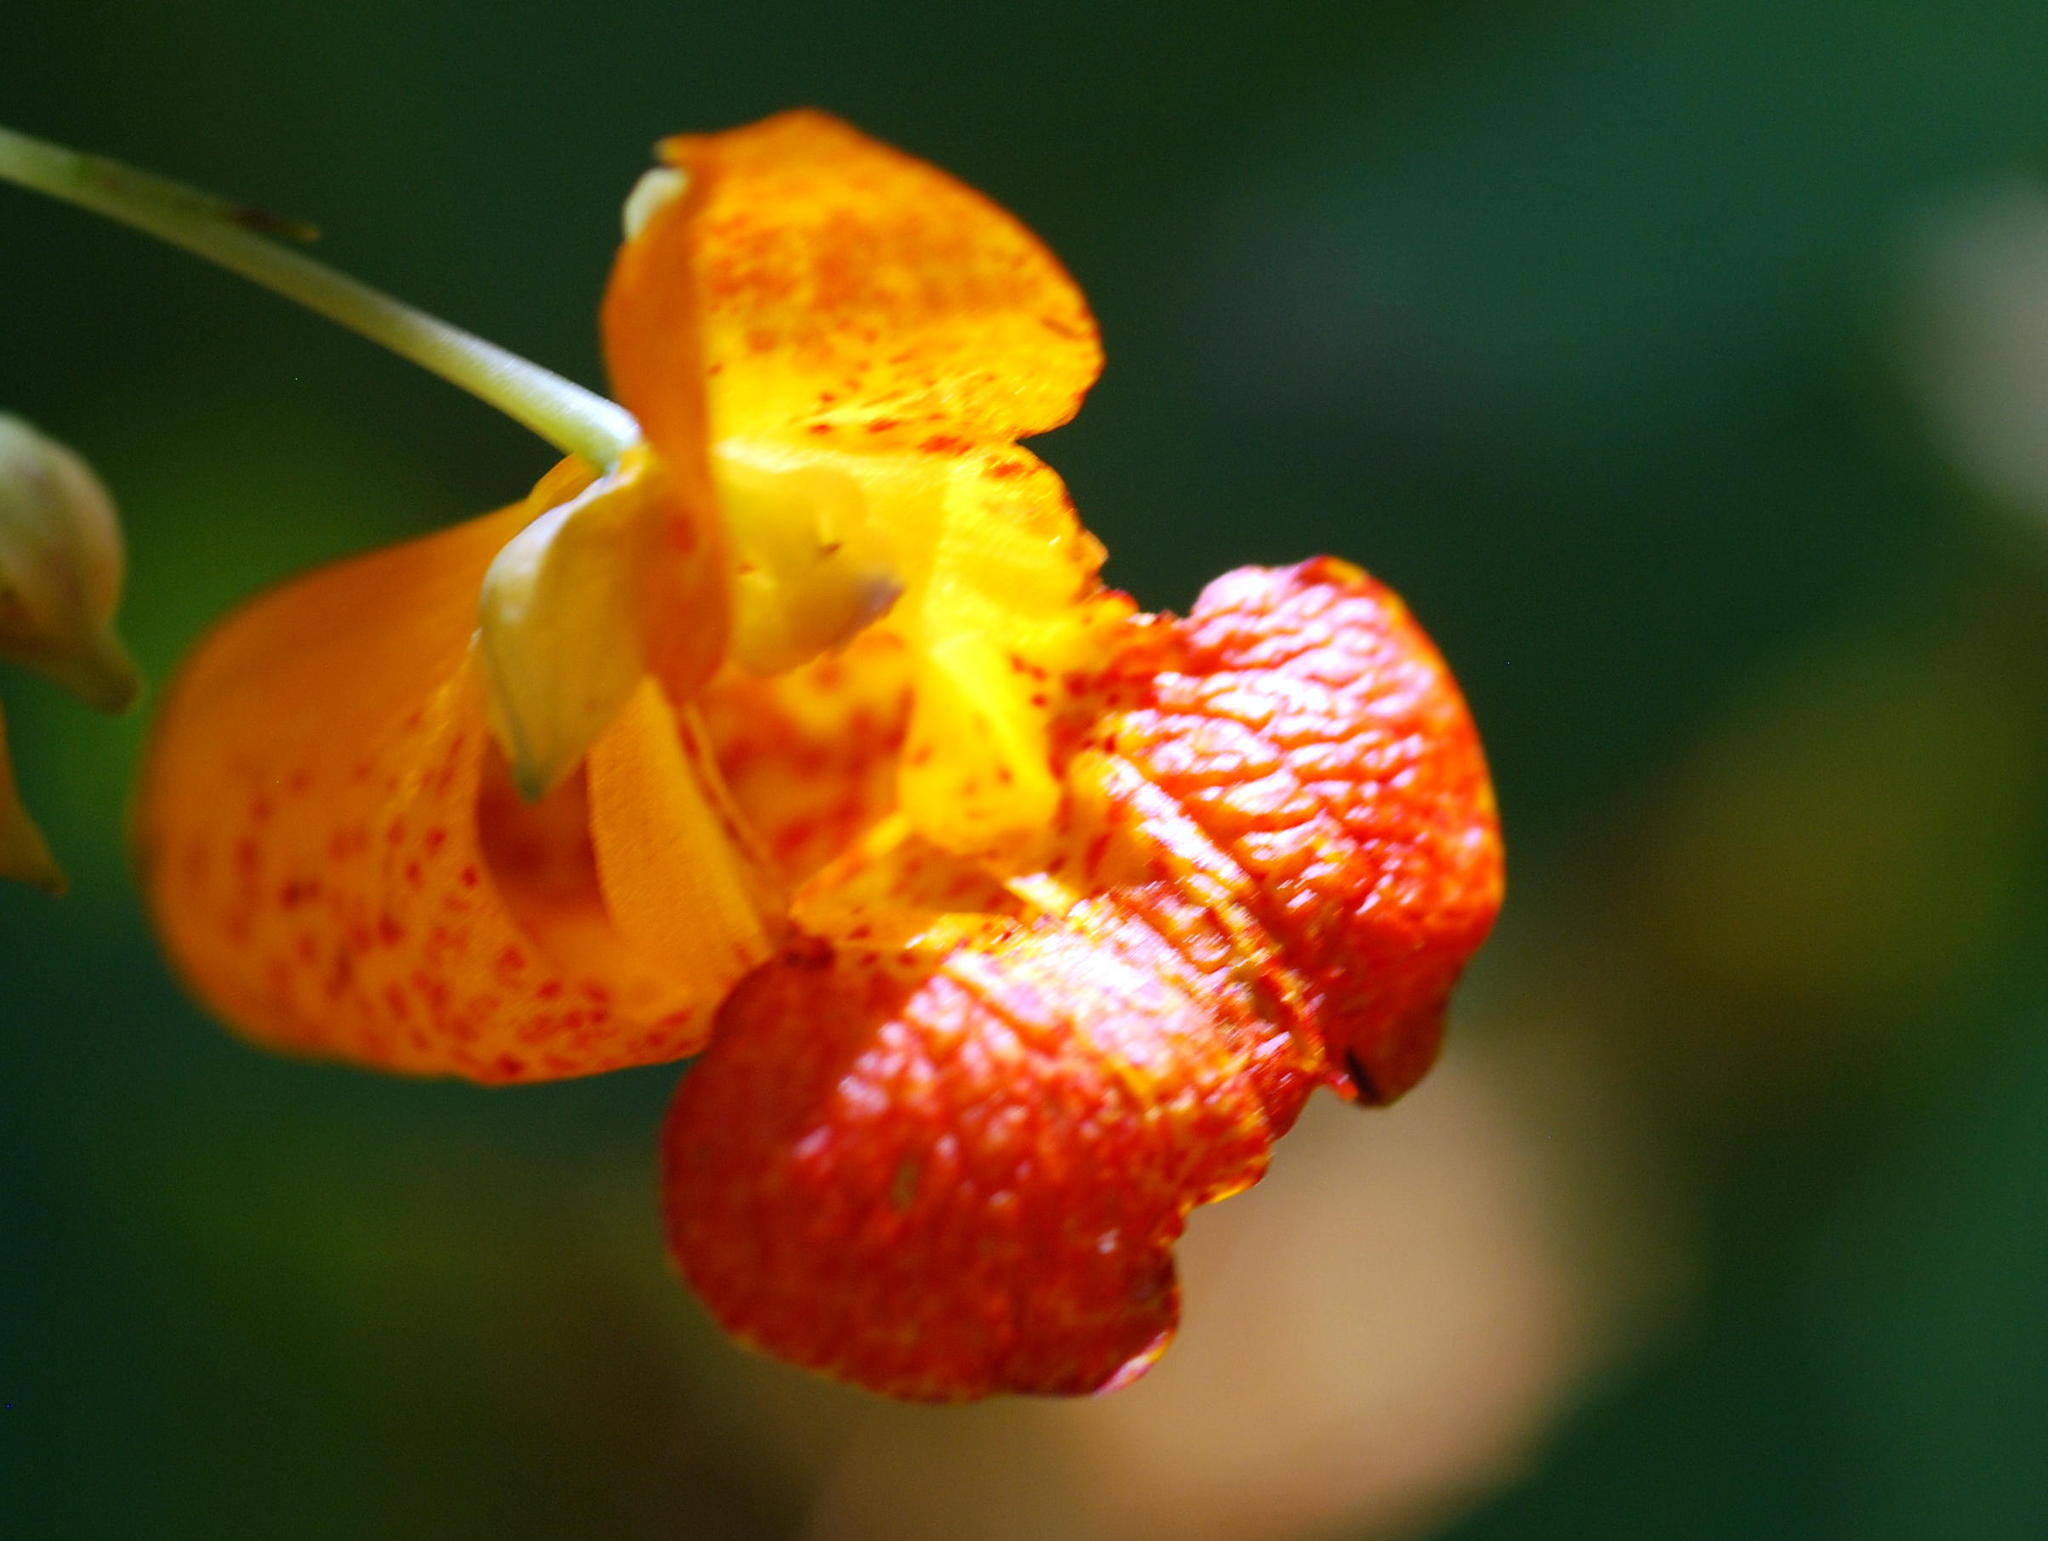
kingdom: Plantae
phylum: Tracheophyta
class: Magnoliopsida
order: Ericales
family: Balsaminaceae
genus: Impatiens
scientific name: Impatiens capensis
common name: Orange balsam
